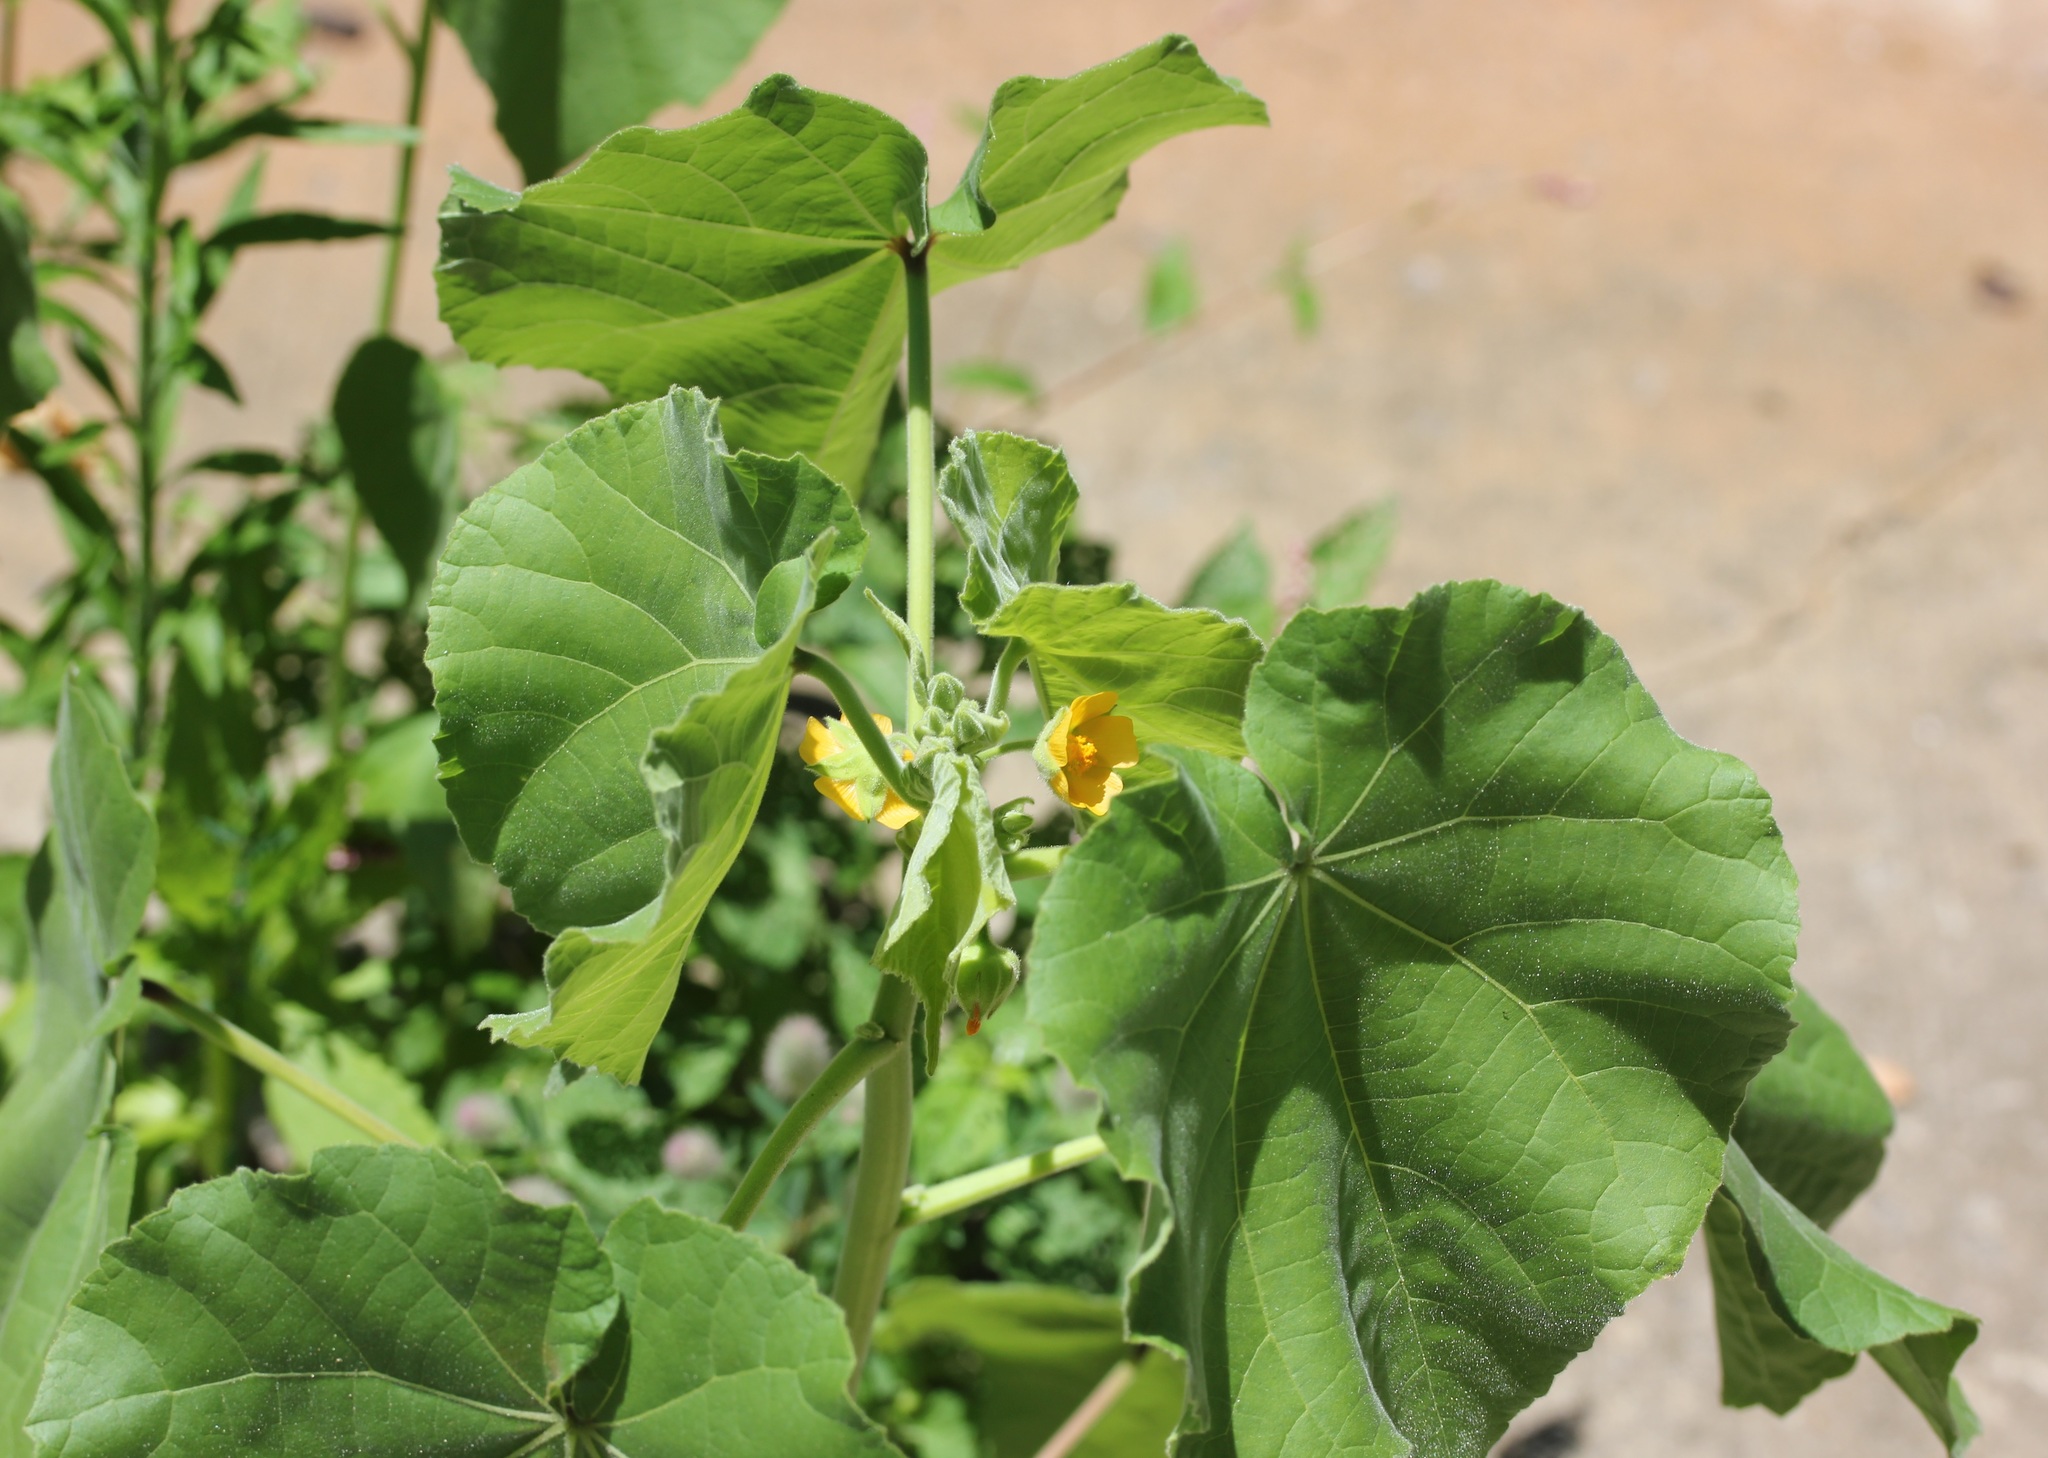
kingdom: Plantae
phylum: Tracheophyta
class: Magnoliopsida
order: Malvales
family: Malvaceae
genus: Abutilon
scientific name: Abutilon theophrasti
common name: Velvetleaf
